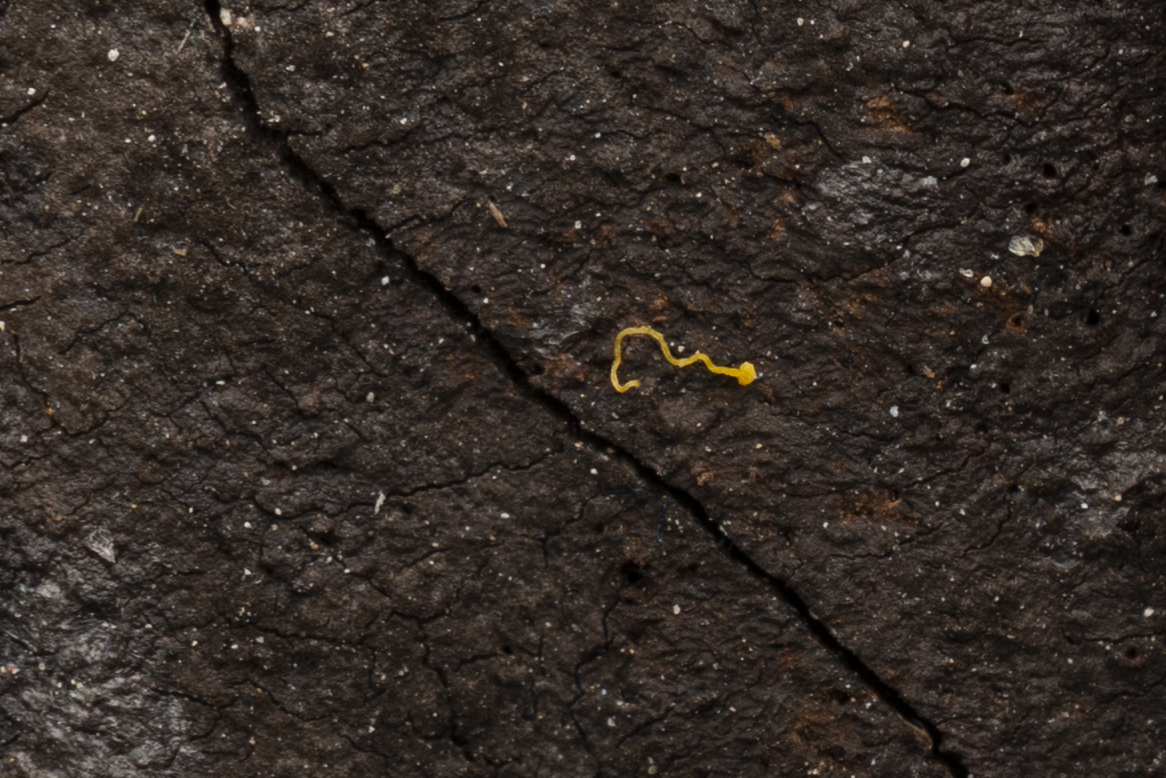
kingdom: Protozoa
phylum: Mycetozoa
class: Myxomycetes
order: Trichiales
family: Arcyriaceae
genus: Hemitrichia
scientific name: Hemitrichia serpula
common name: Pretzel slime mold
